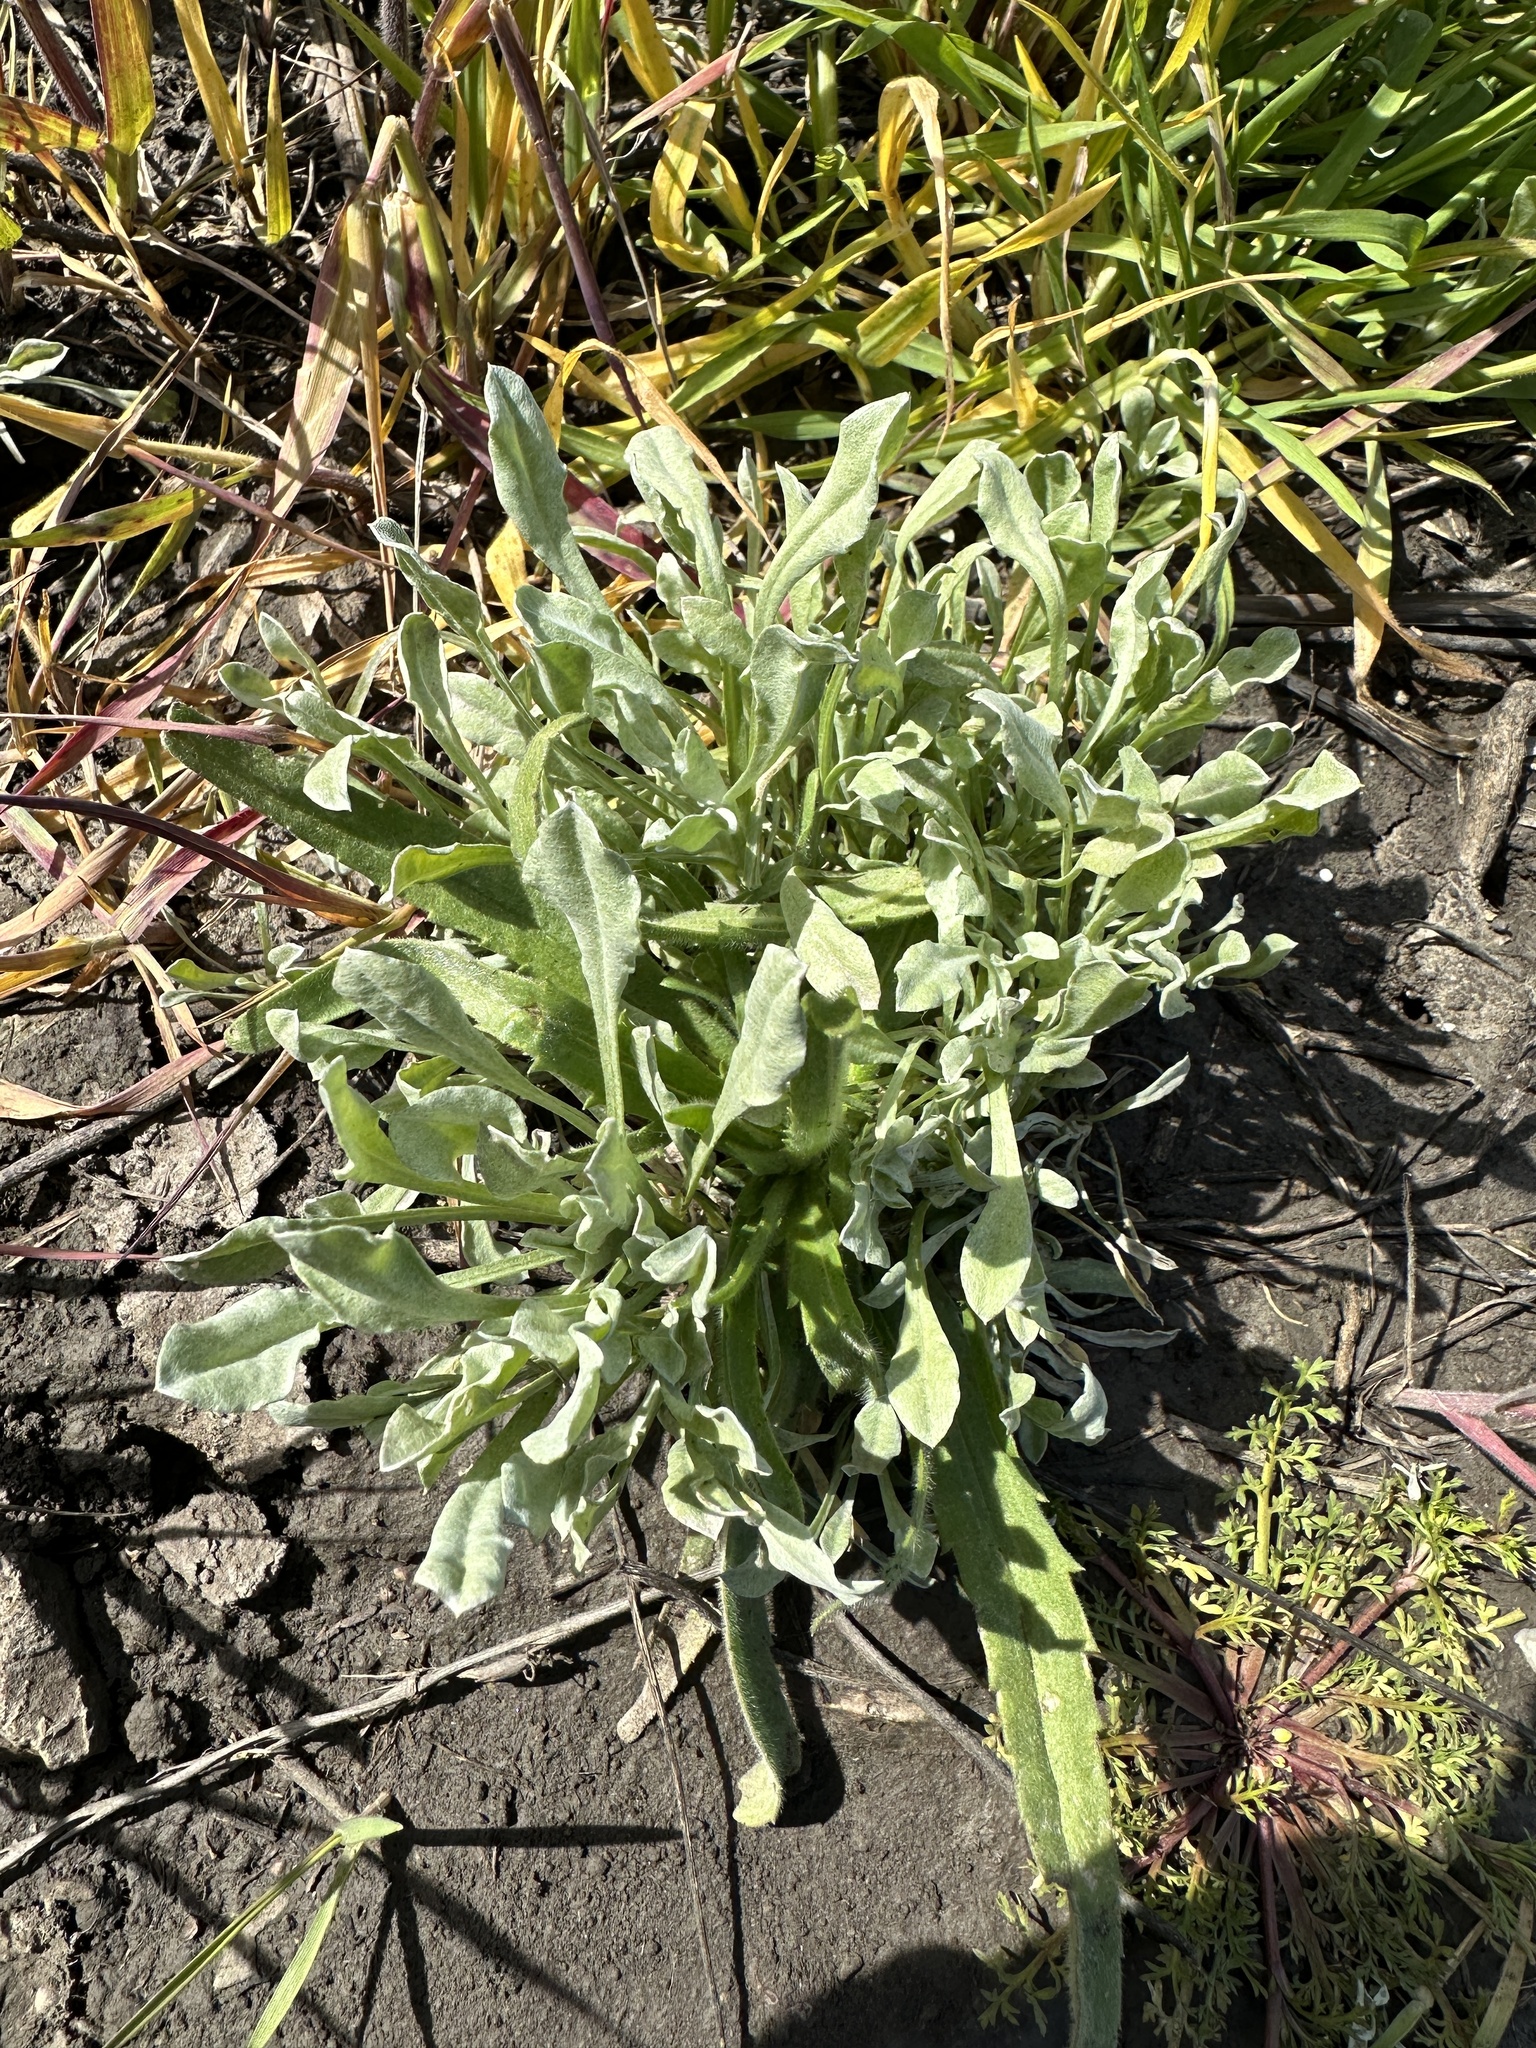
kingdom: Plantae
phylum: Tracheophyta
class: Magnoliopsida
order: Asterales
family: Asteraceae
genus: Hesperevax
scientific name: Hesperevax caulescens
